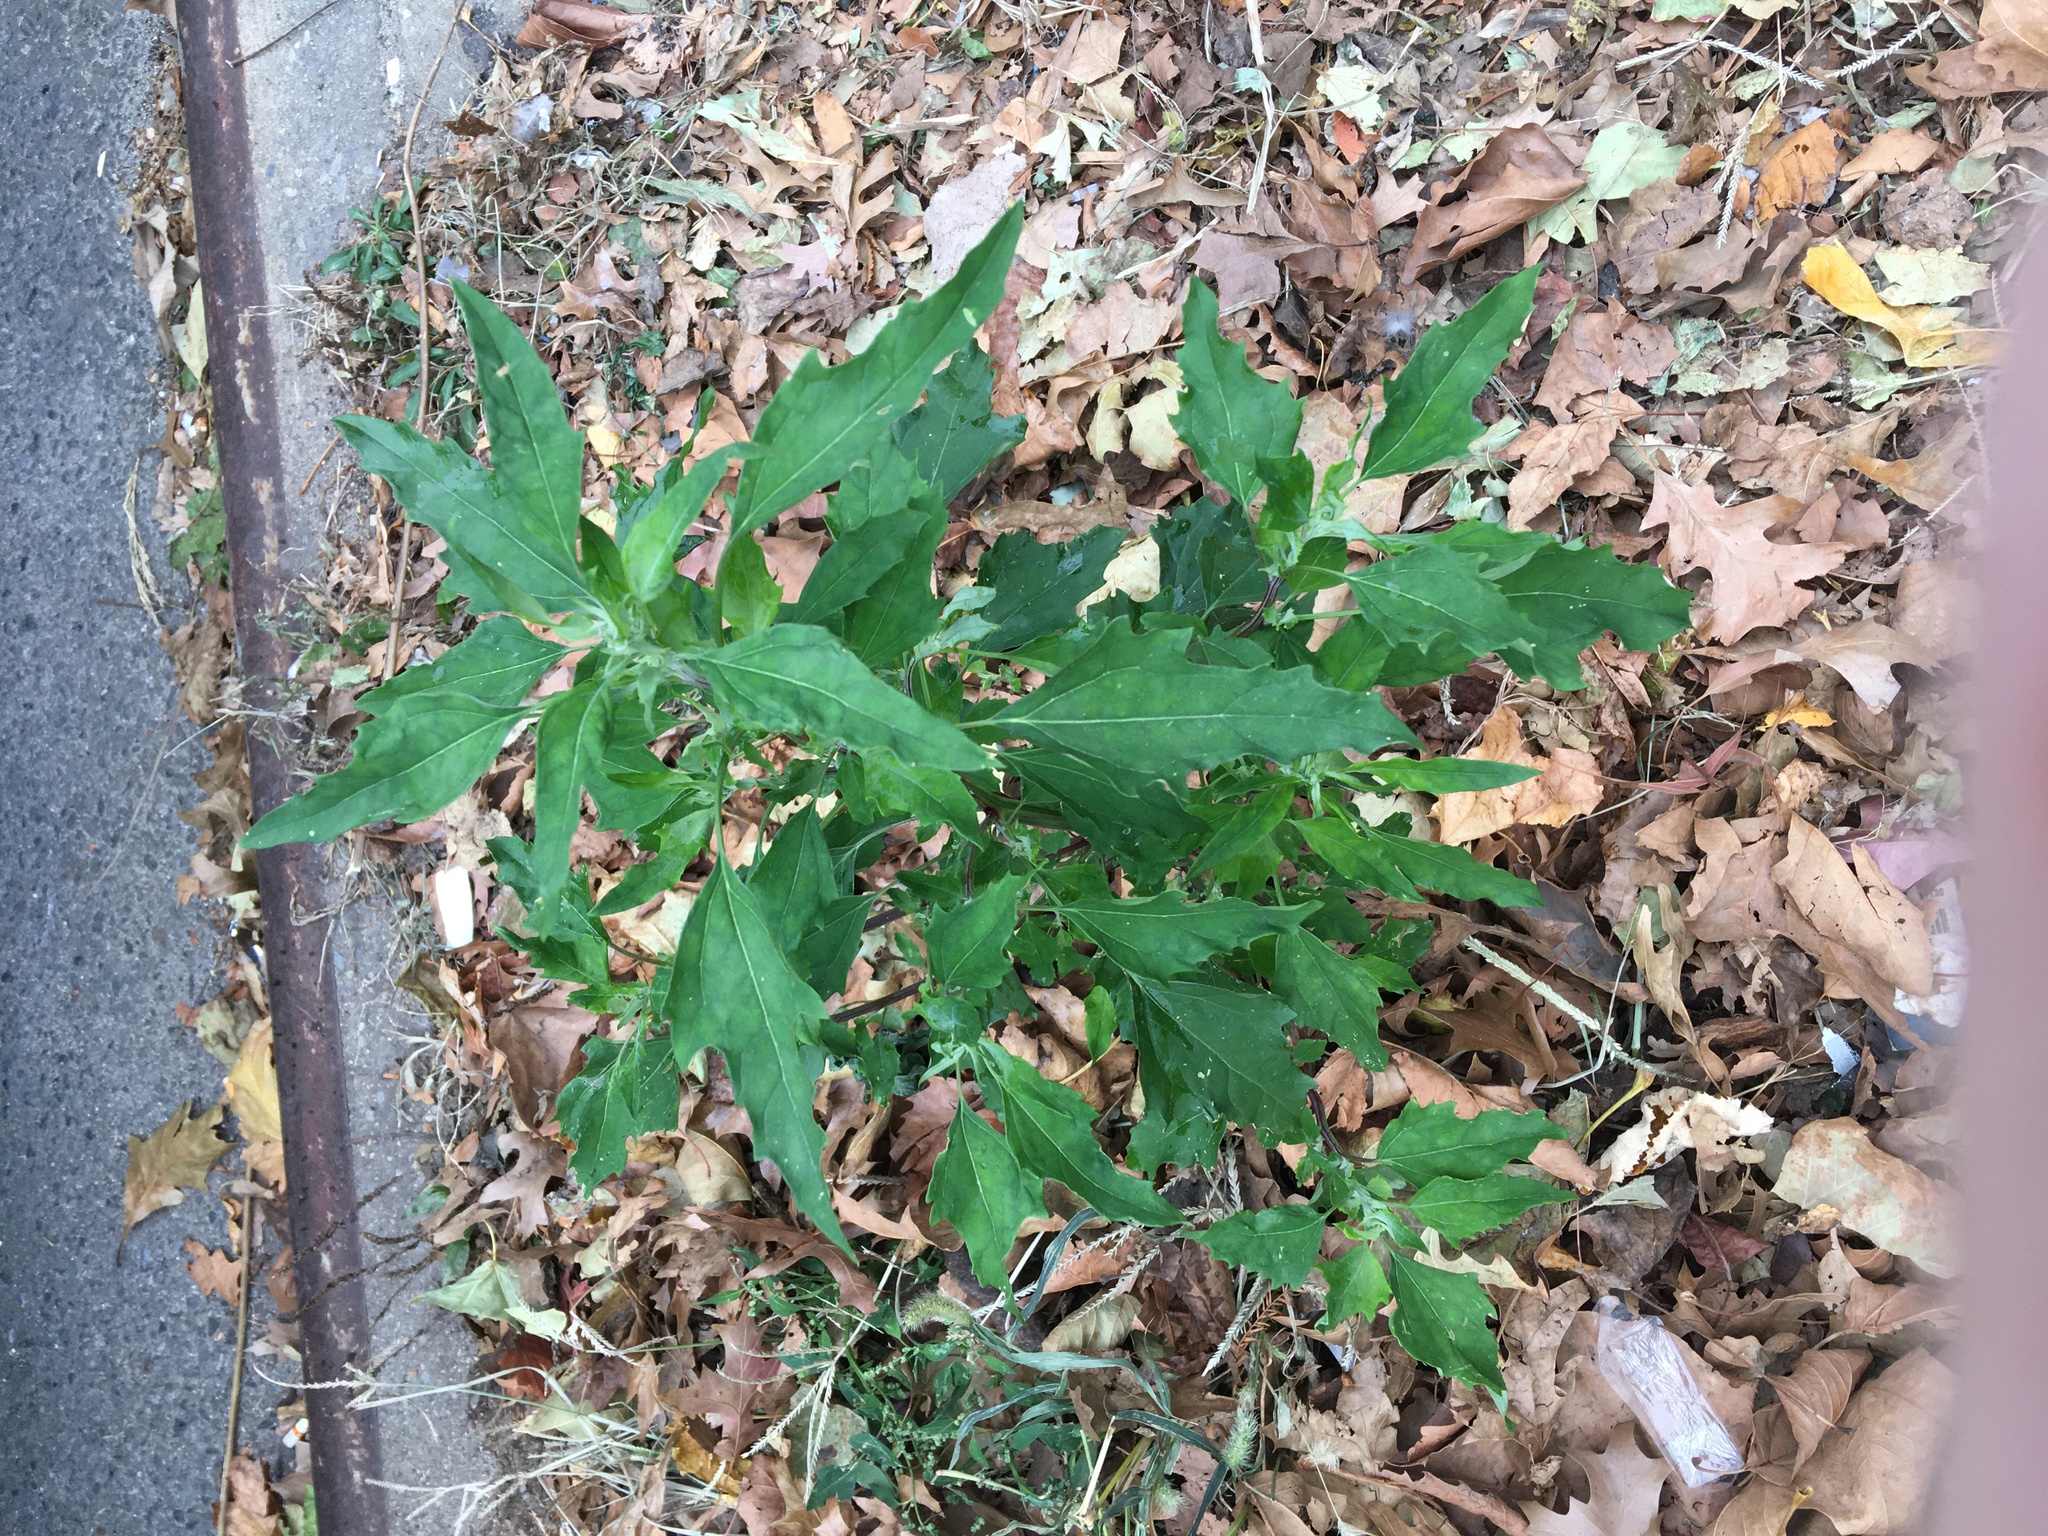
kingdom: Plantae
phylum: Tracheophyta
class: Magnoliopsida
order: Caryophyllales
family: Amaranthaceae
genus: Chenopodium
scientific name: Chenopodium album
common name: Fat-hen
